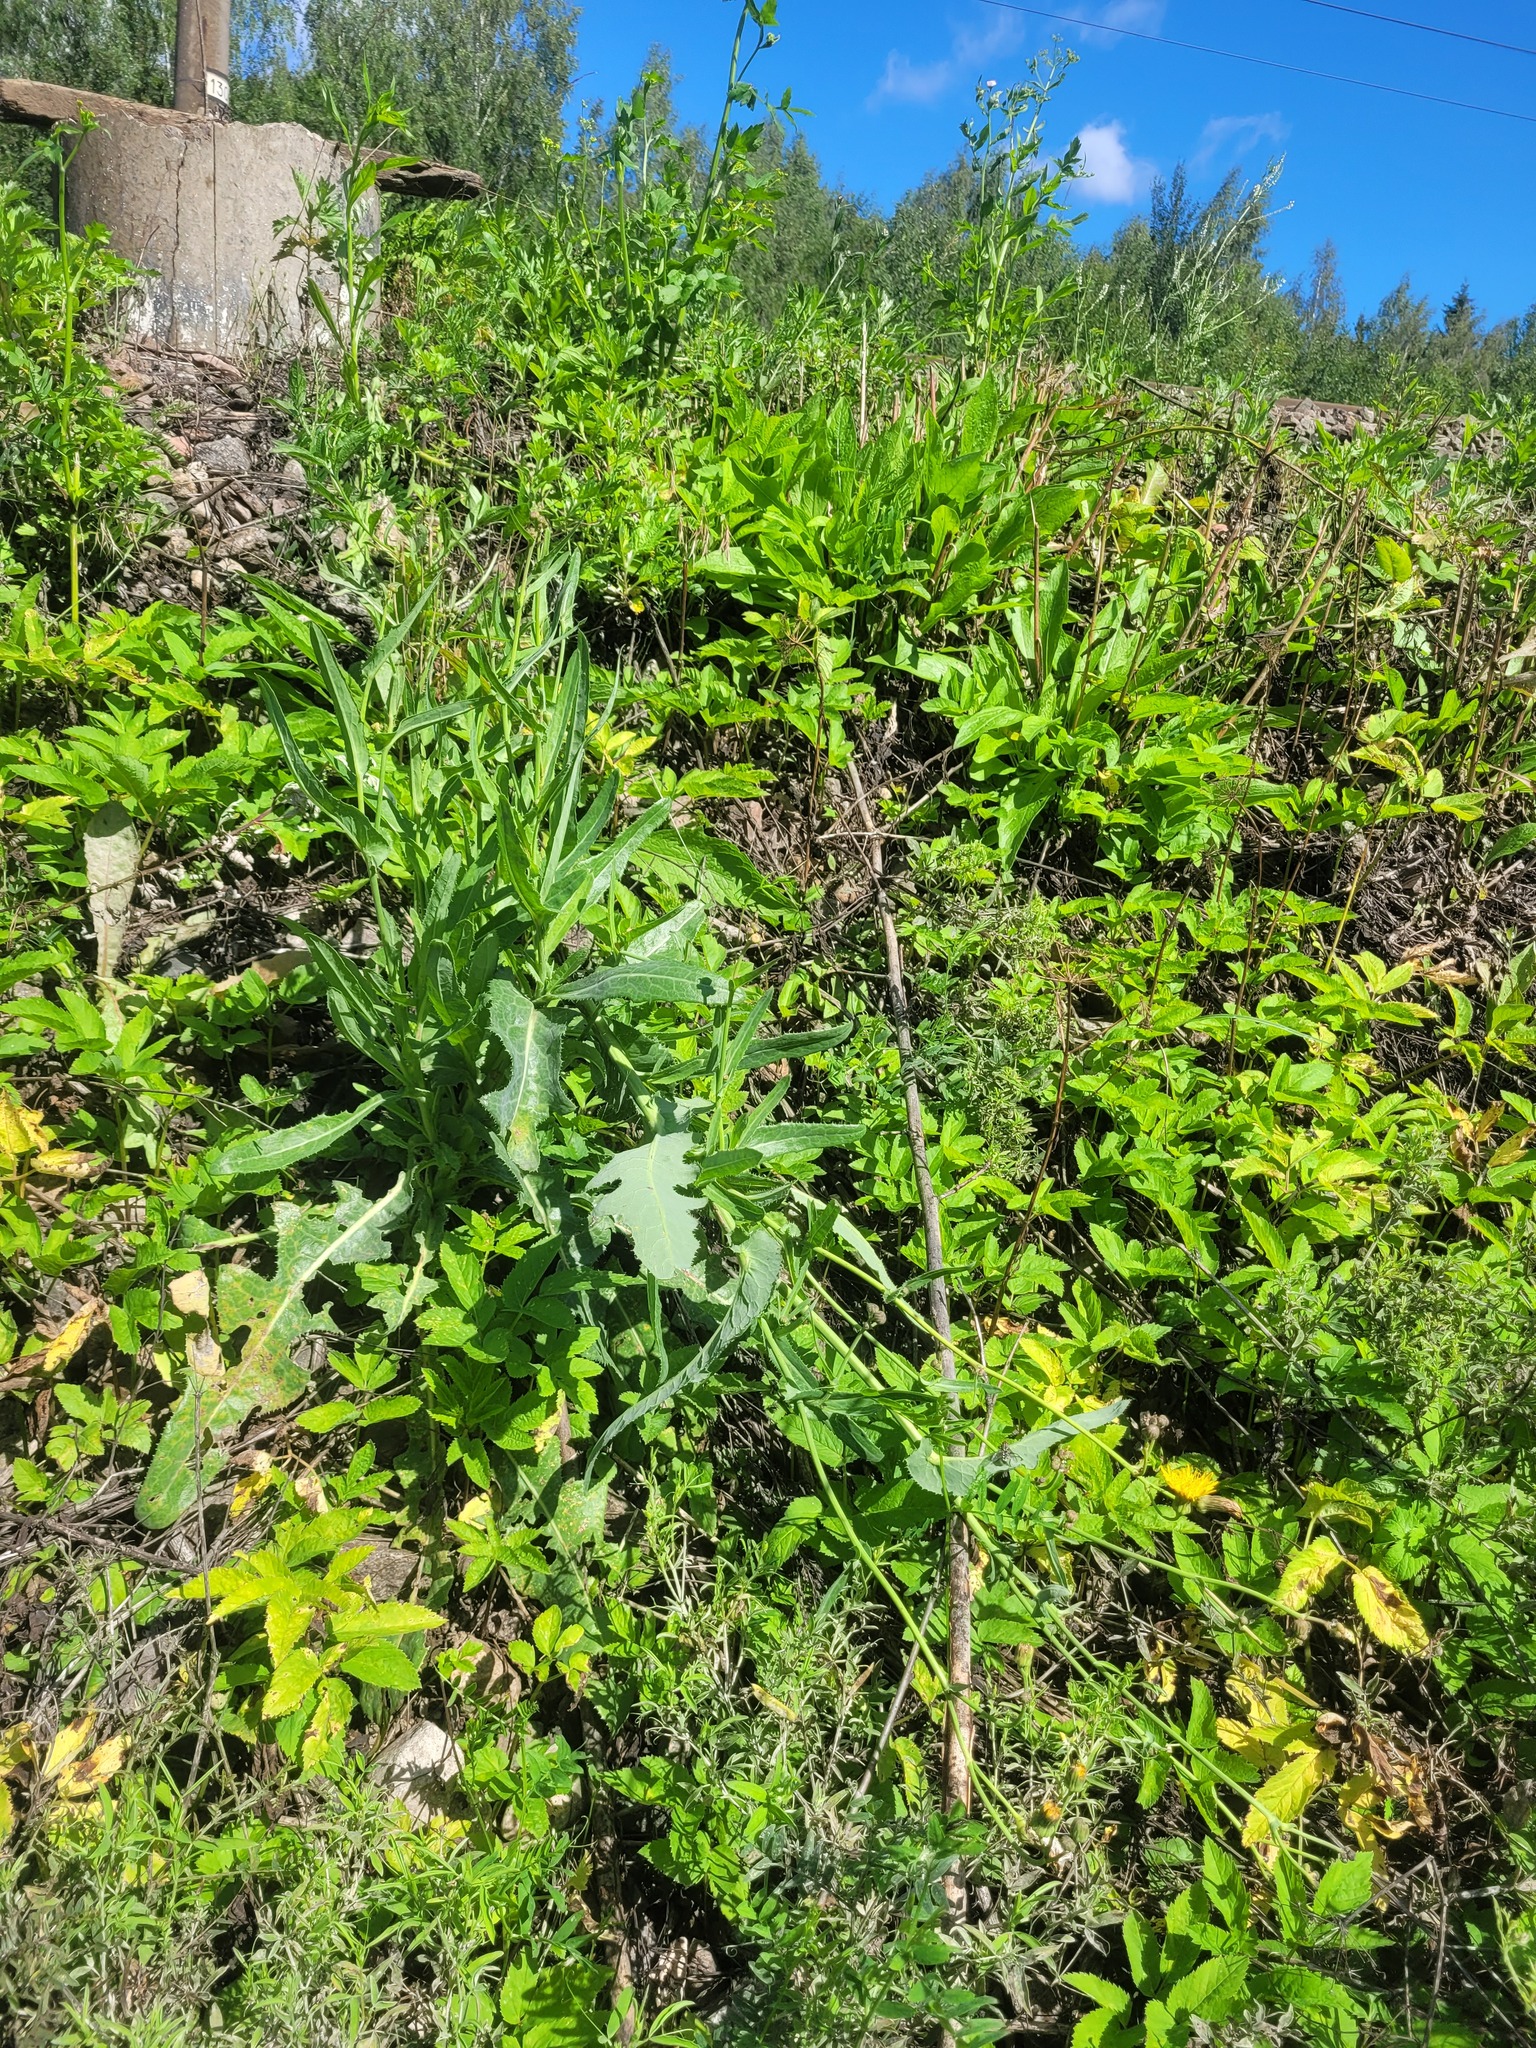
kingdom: Plantae
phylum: Tracheophyta
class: Magnoliopsida
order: Asterales
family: Asteraceae
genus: Sonchus
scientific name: Sonchus arvensis
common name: Perennial sow-thistle
